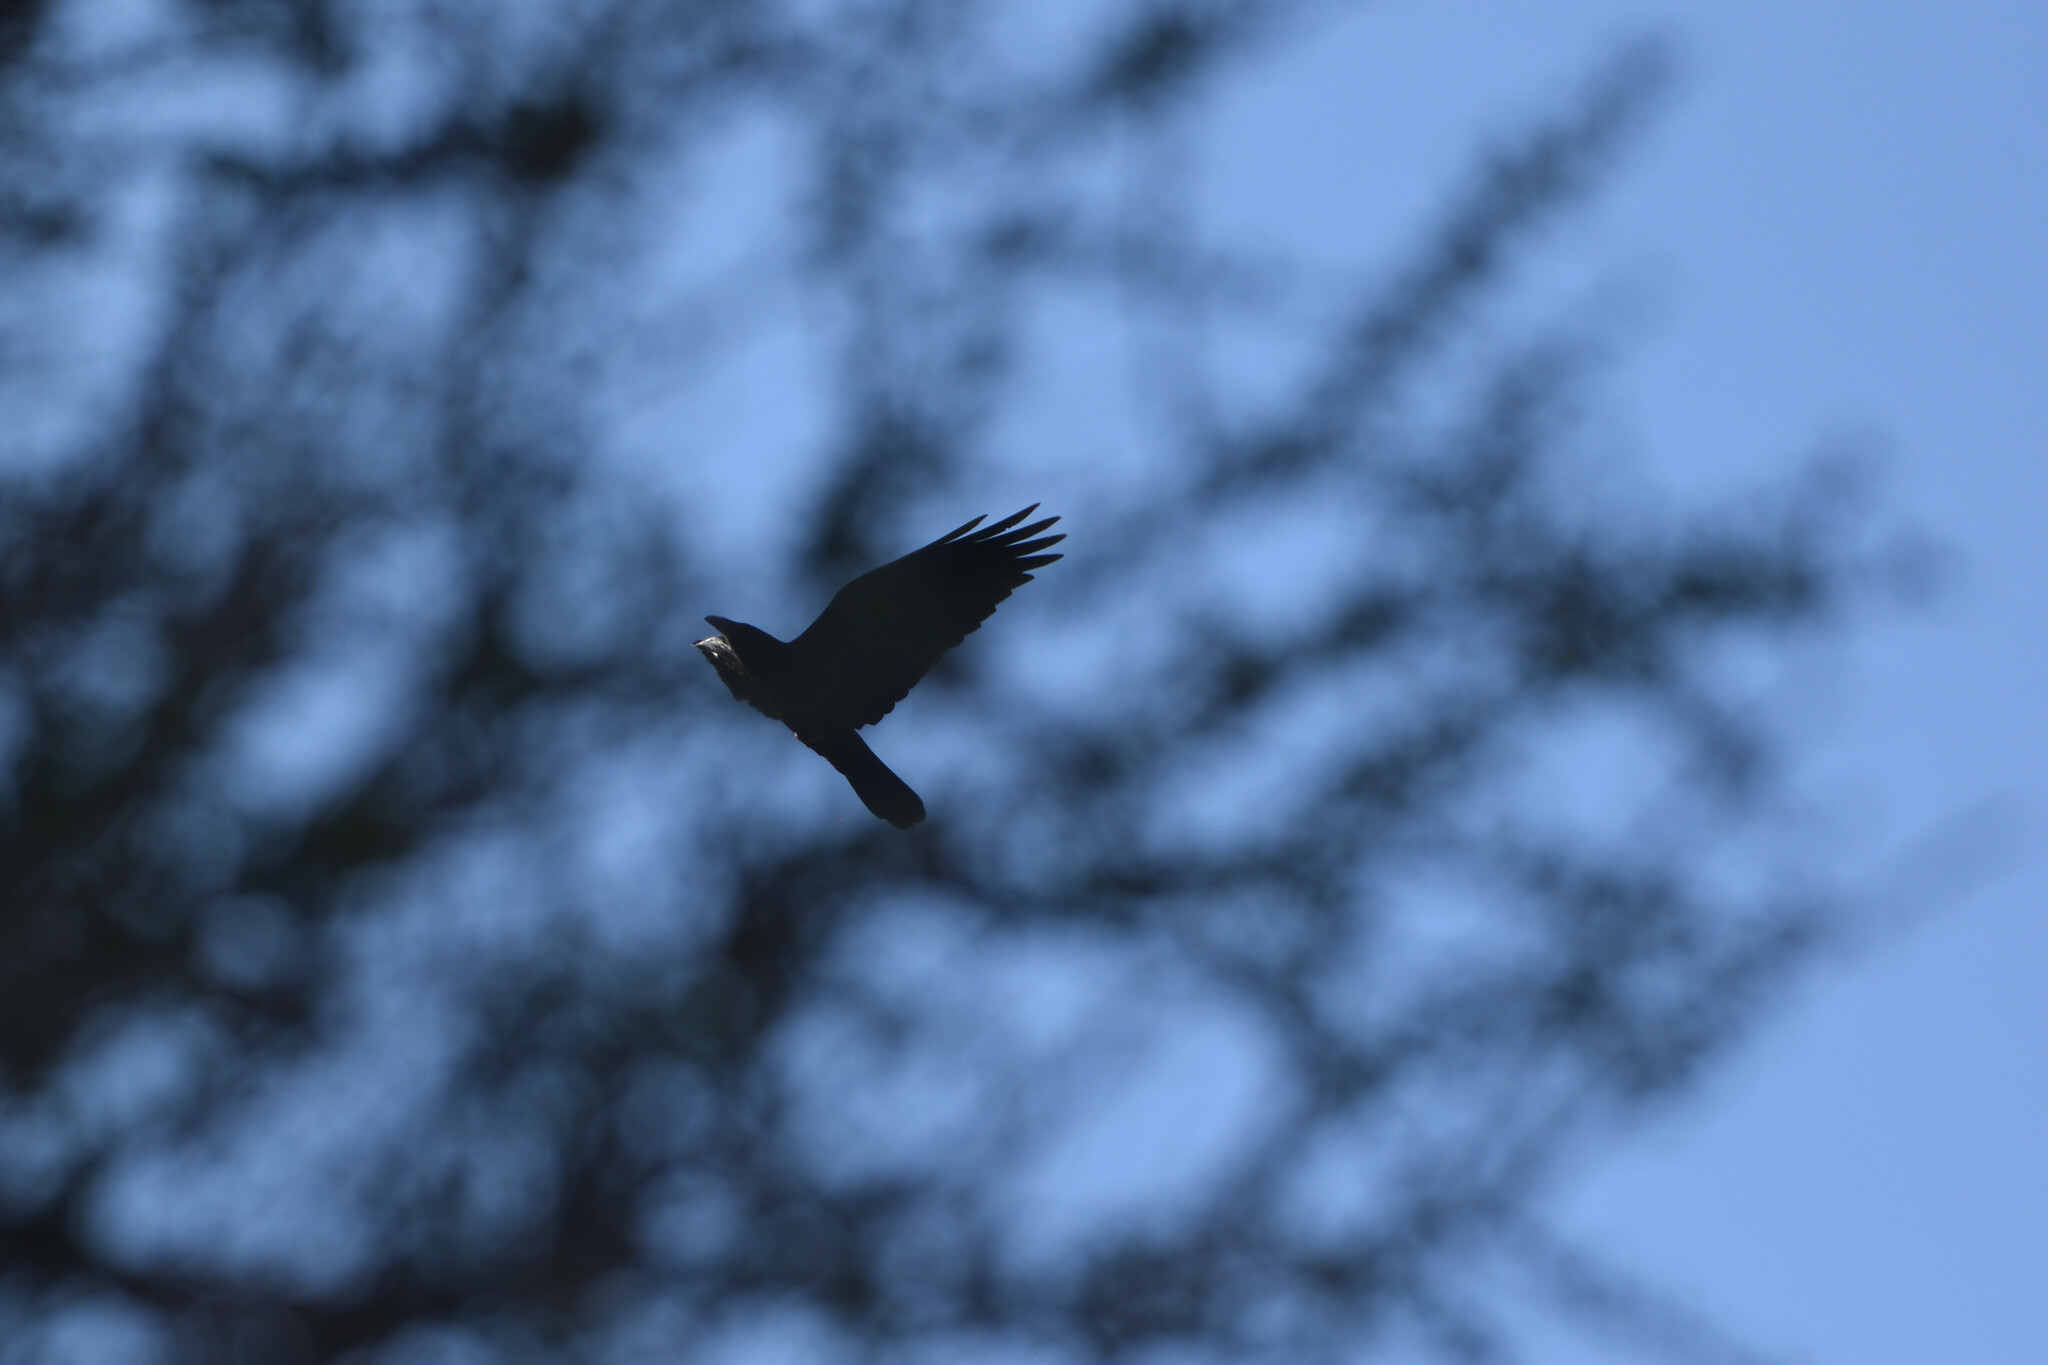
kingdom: Animalia
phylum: Chordata
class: Aves
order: Passeriformes
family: Corvidae
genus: Corvus
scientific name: Corvus corax
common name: Common raven
